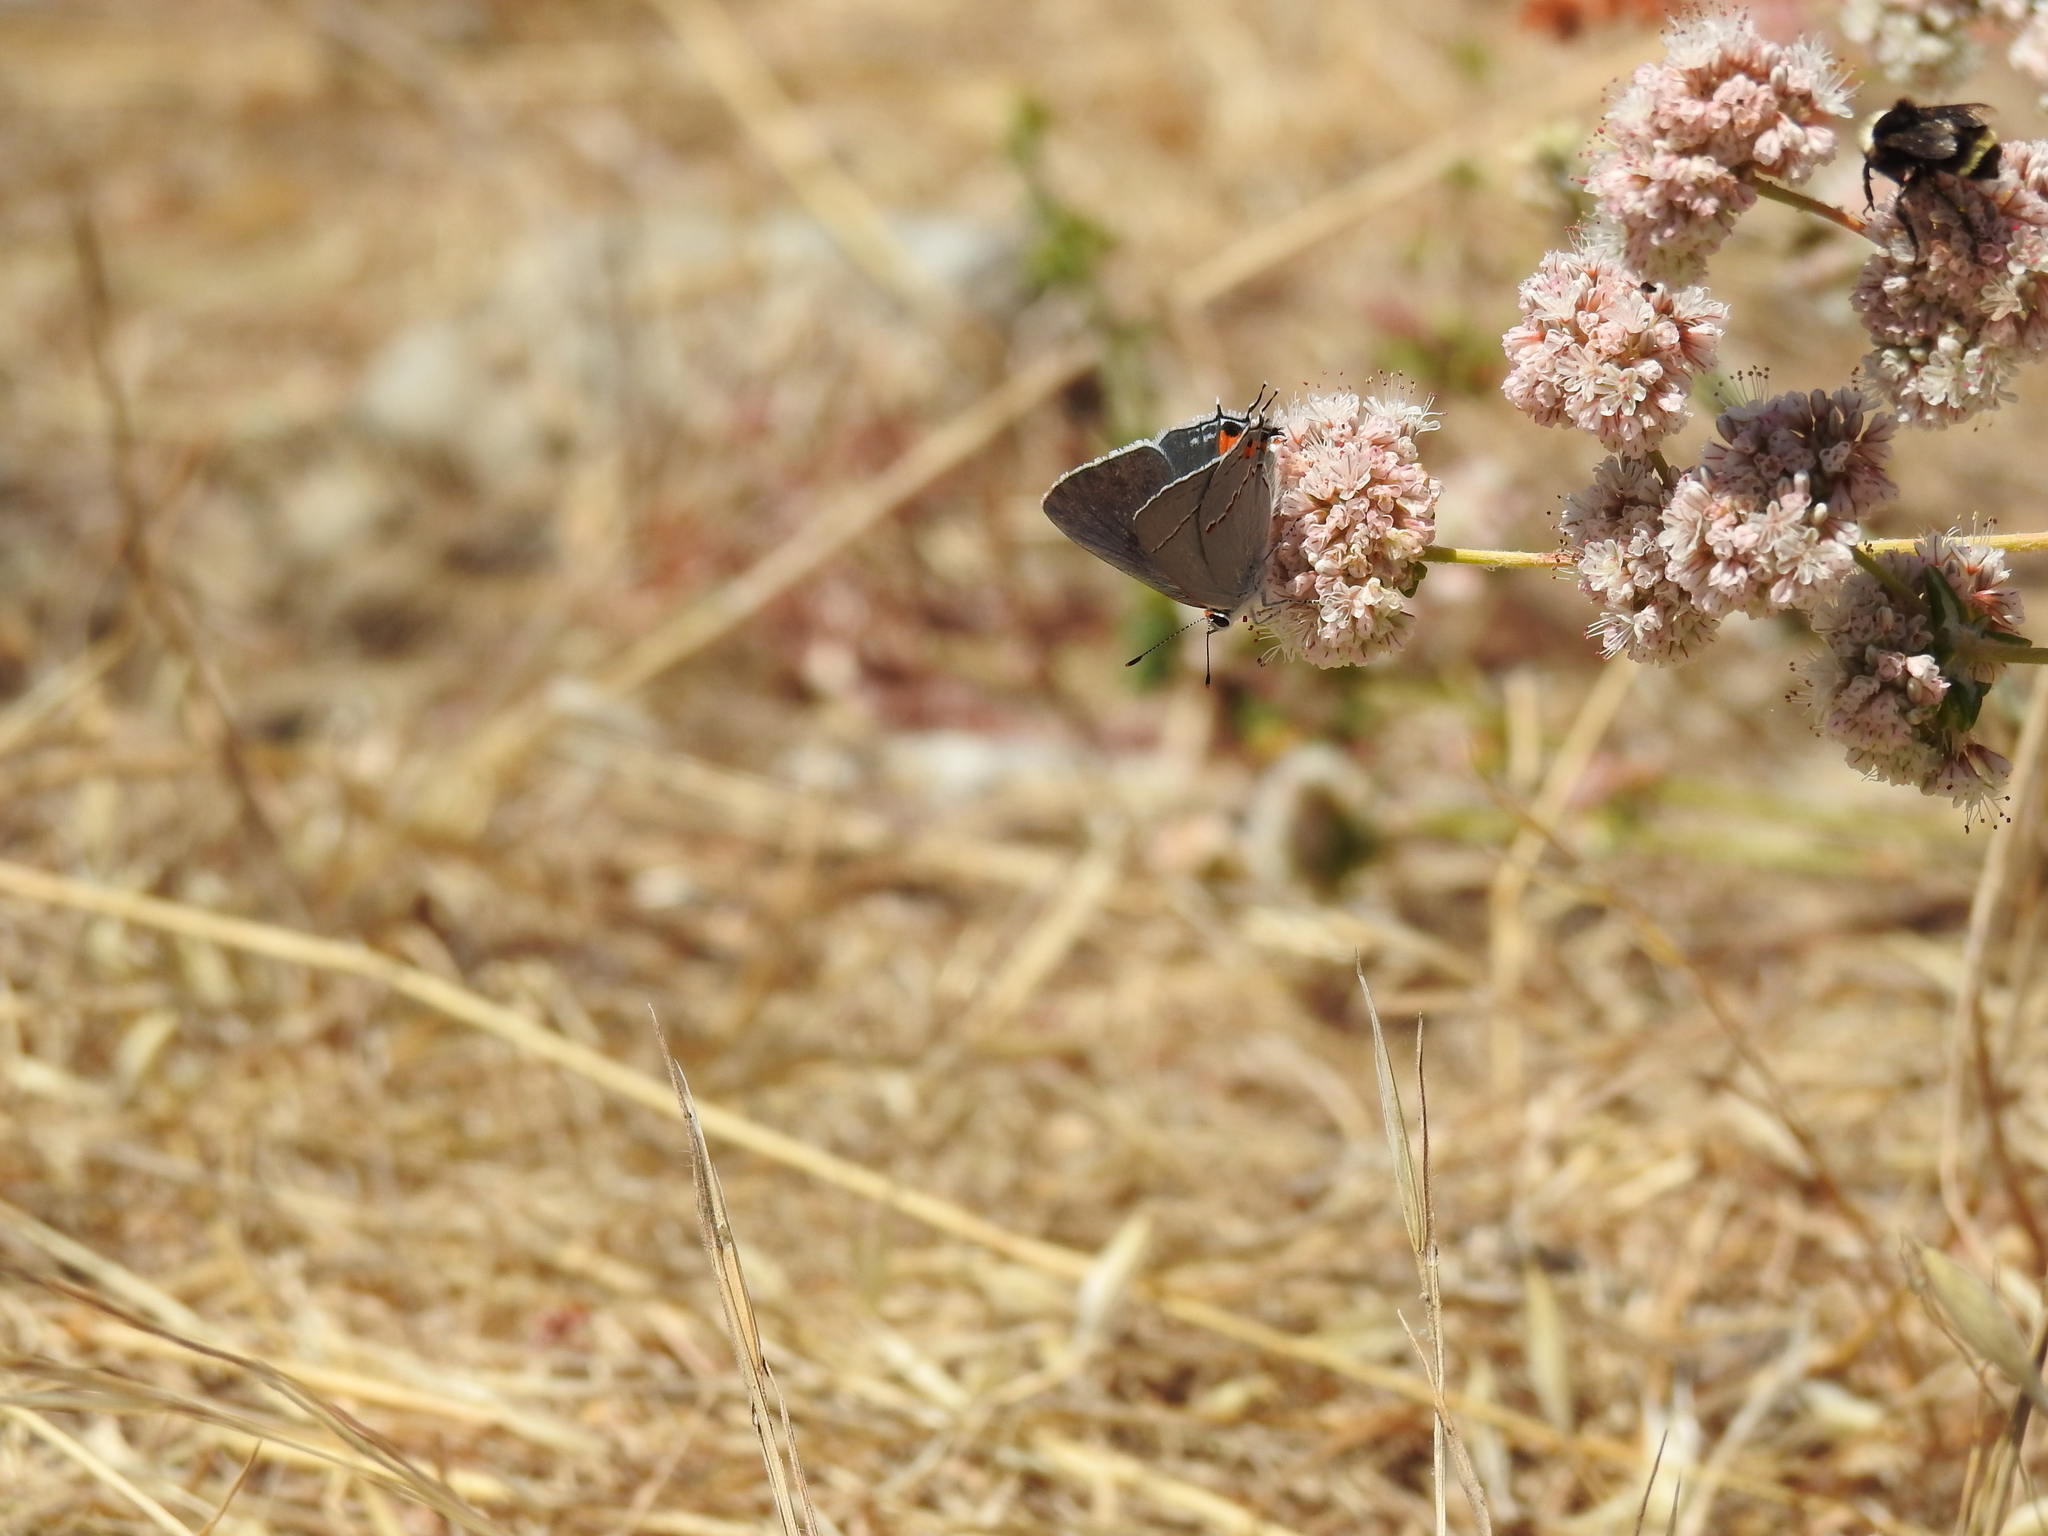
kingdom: Animalia
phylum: Arthropoda
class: Insecta
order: Lepidoptera
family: Lycaenidae
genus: Strymon
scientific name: Strymon melinus
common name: Gray hairstreak
